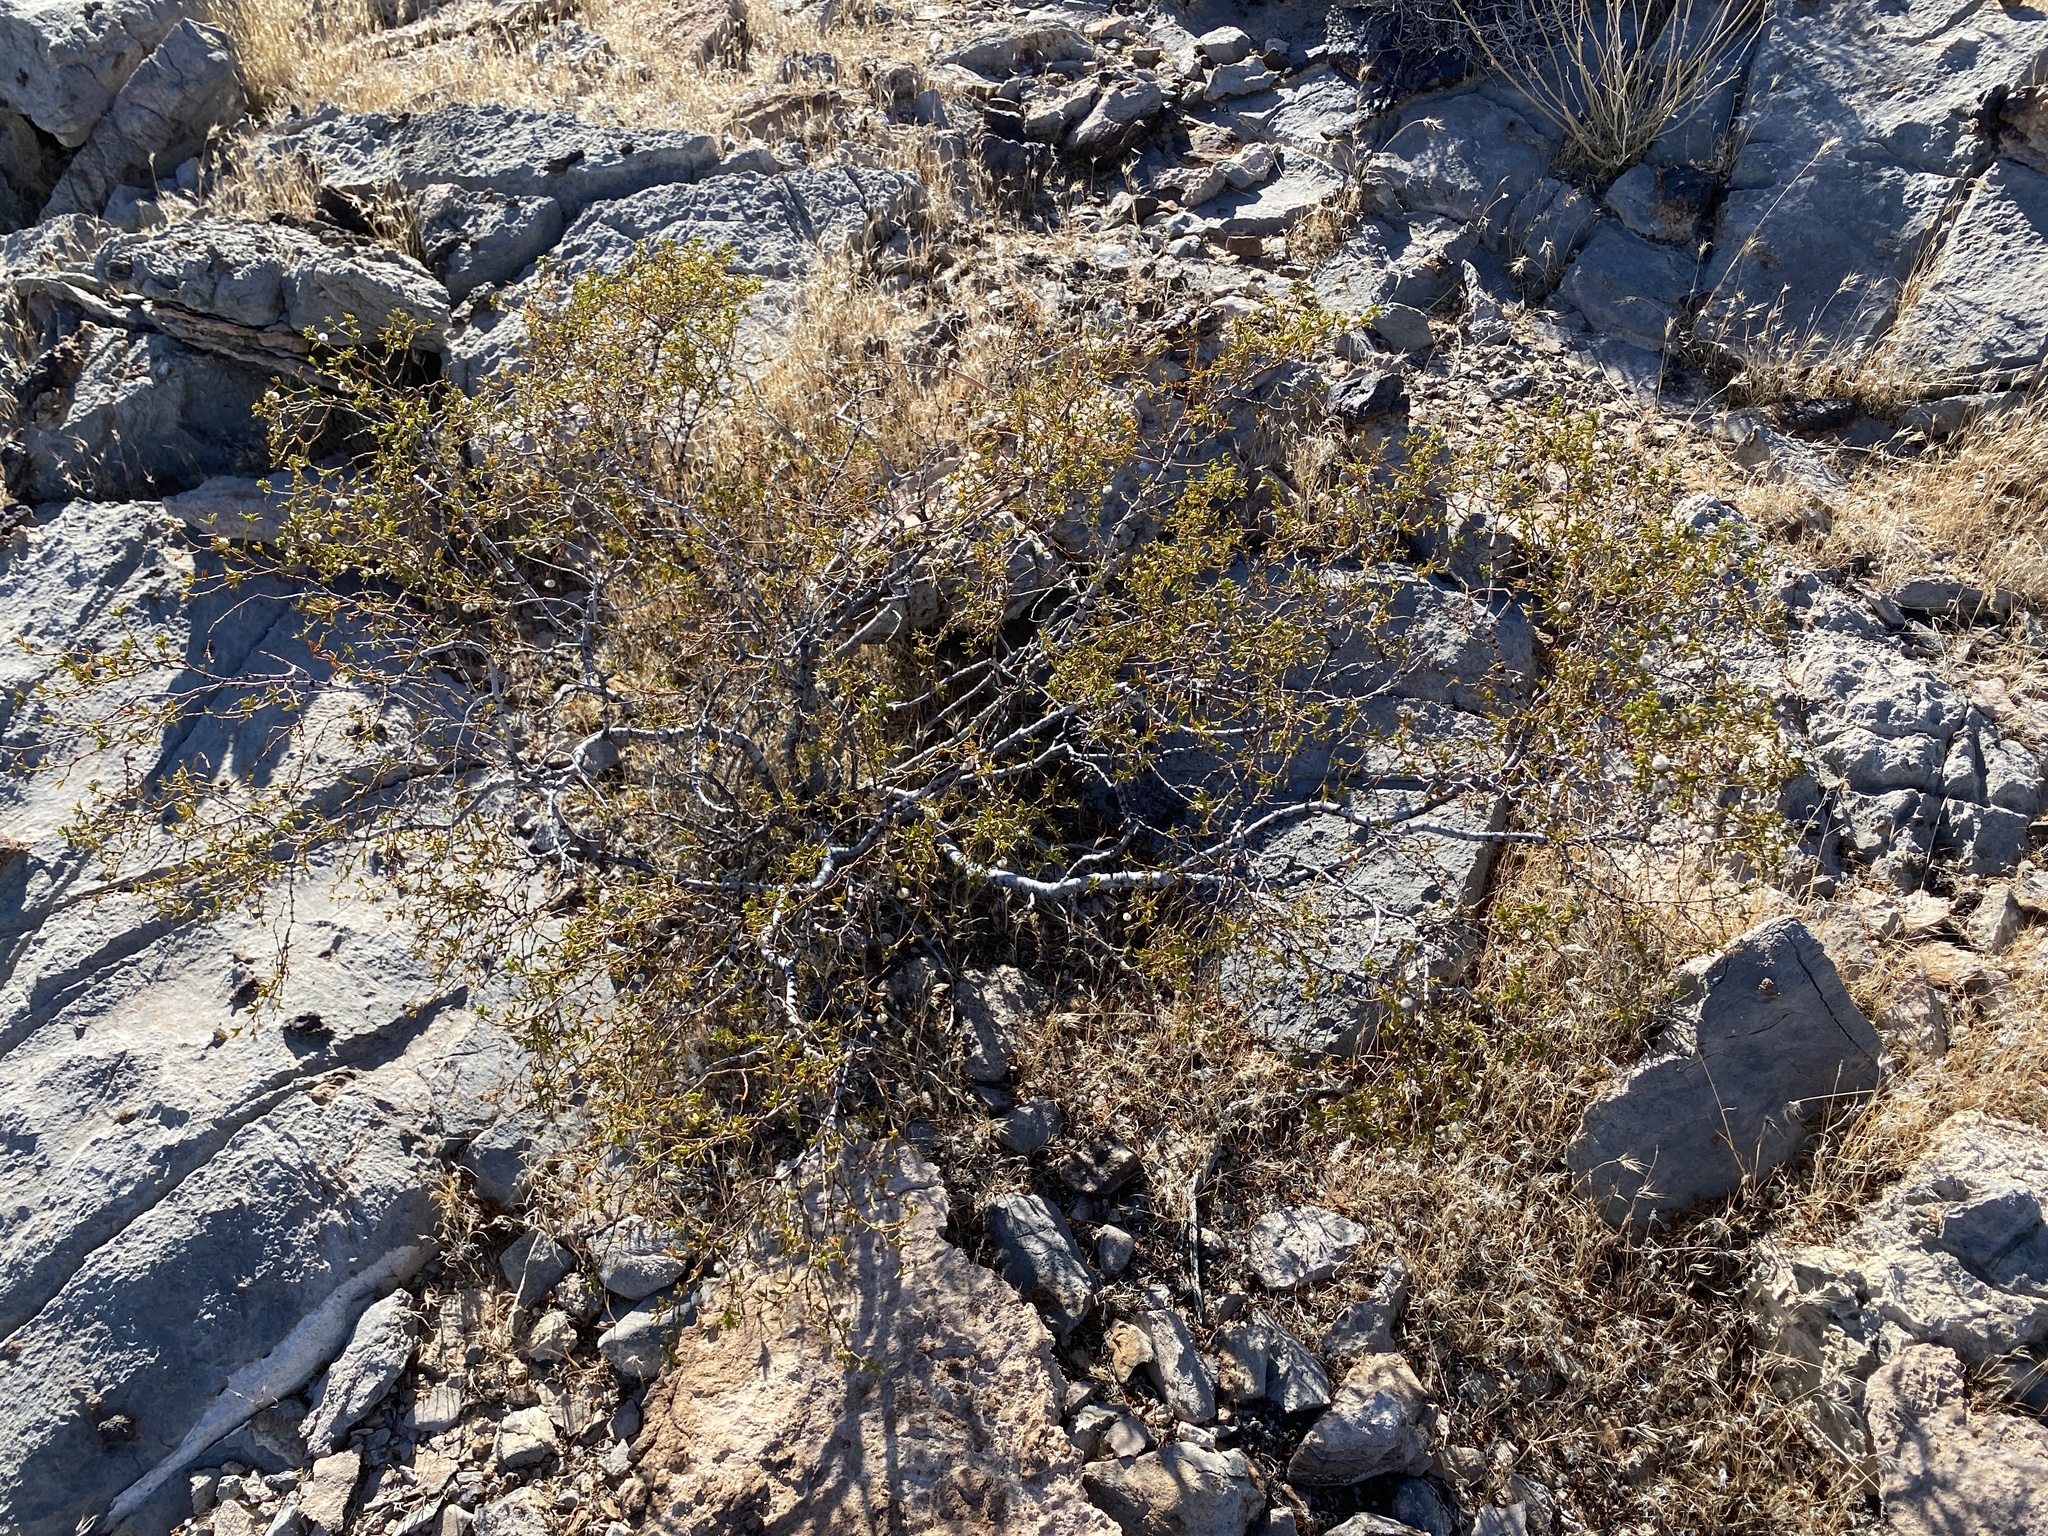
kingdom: Plantae
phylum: Tracheophyta
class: Magnoliopsida
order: Zygophyllales
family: Zygophyllaceae
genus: Larrea
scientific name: Larrea tridentata
